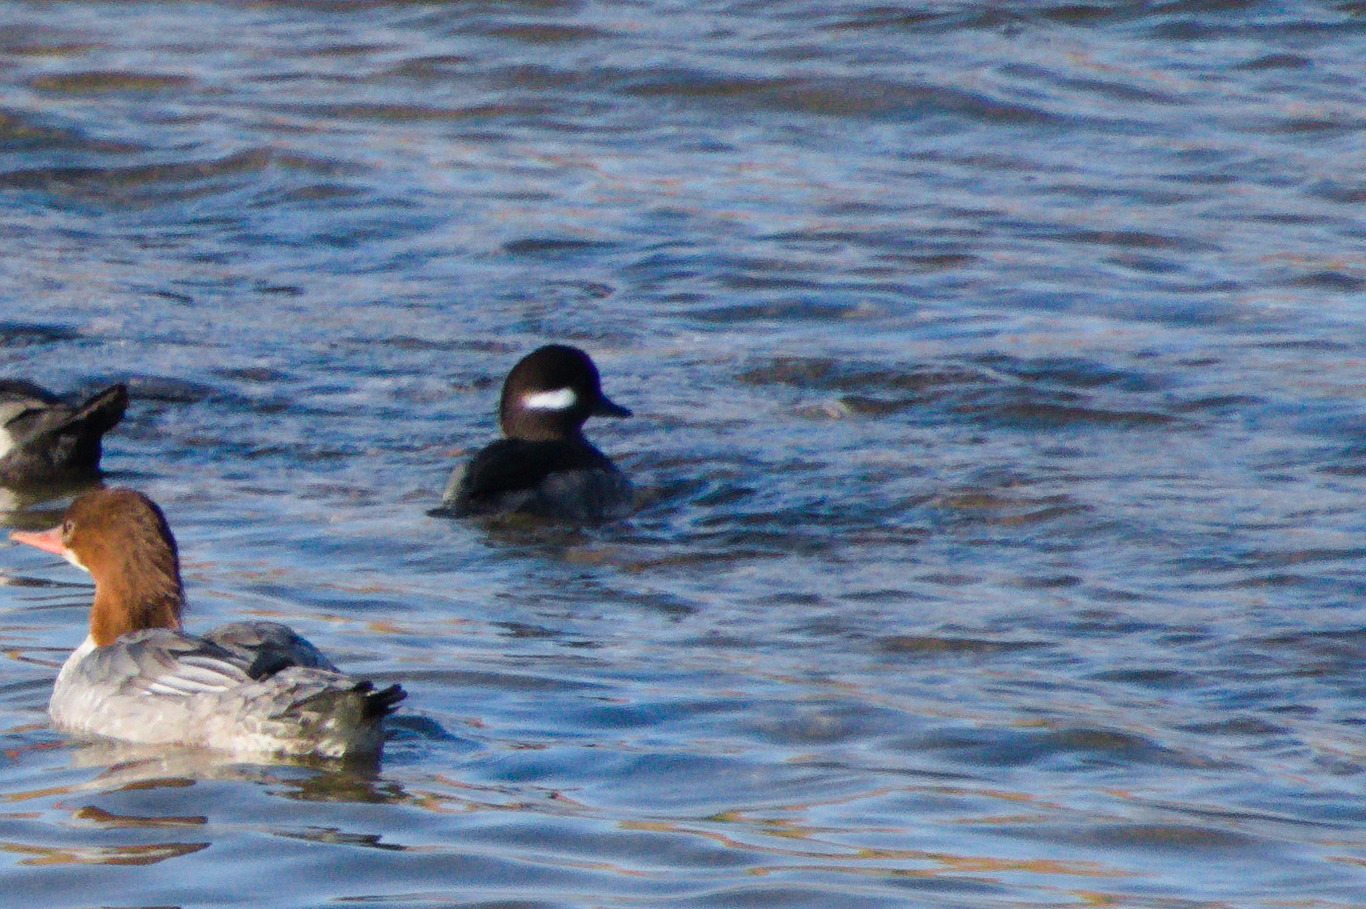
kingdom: Animalia
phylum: Chordata
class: Aves
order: Anseriformes
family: Anatidae
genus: Bucephala
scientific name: Bucephala albeola
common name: Bufflehead
